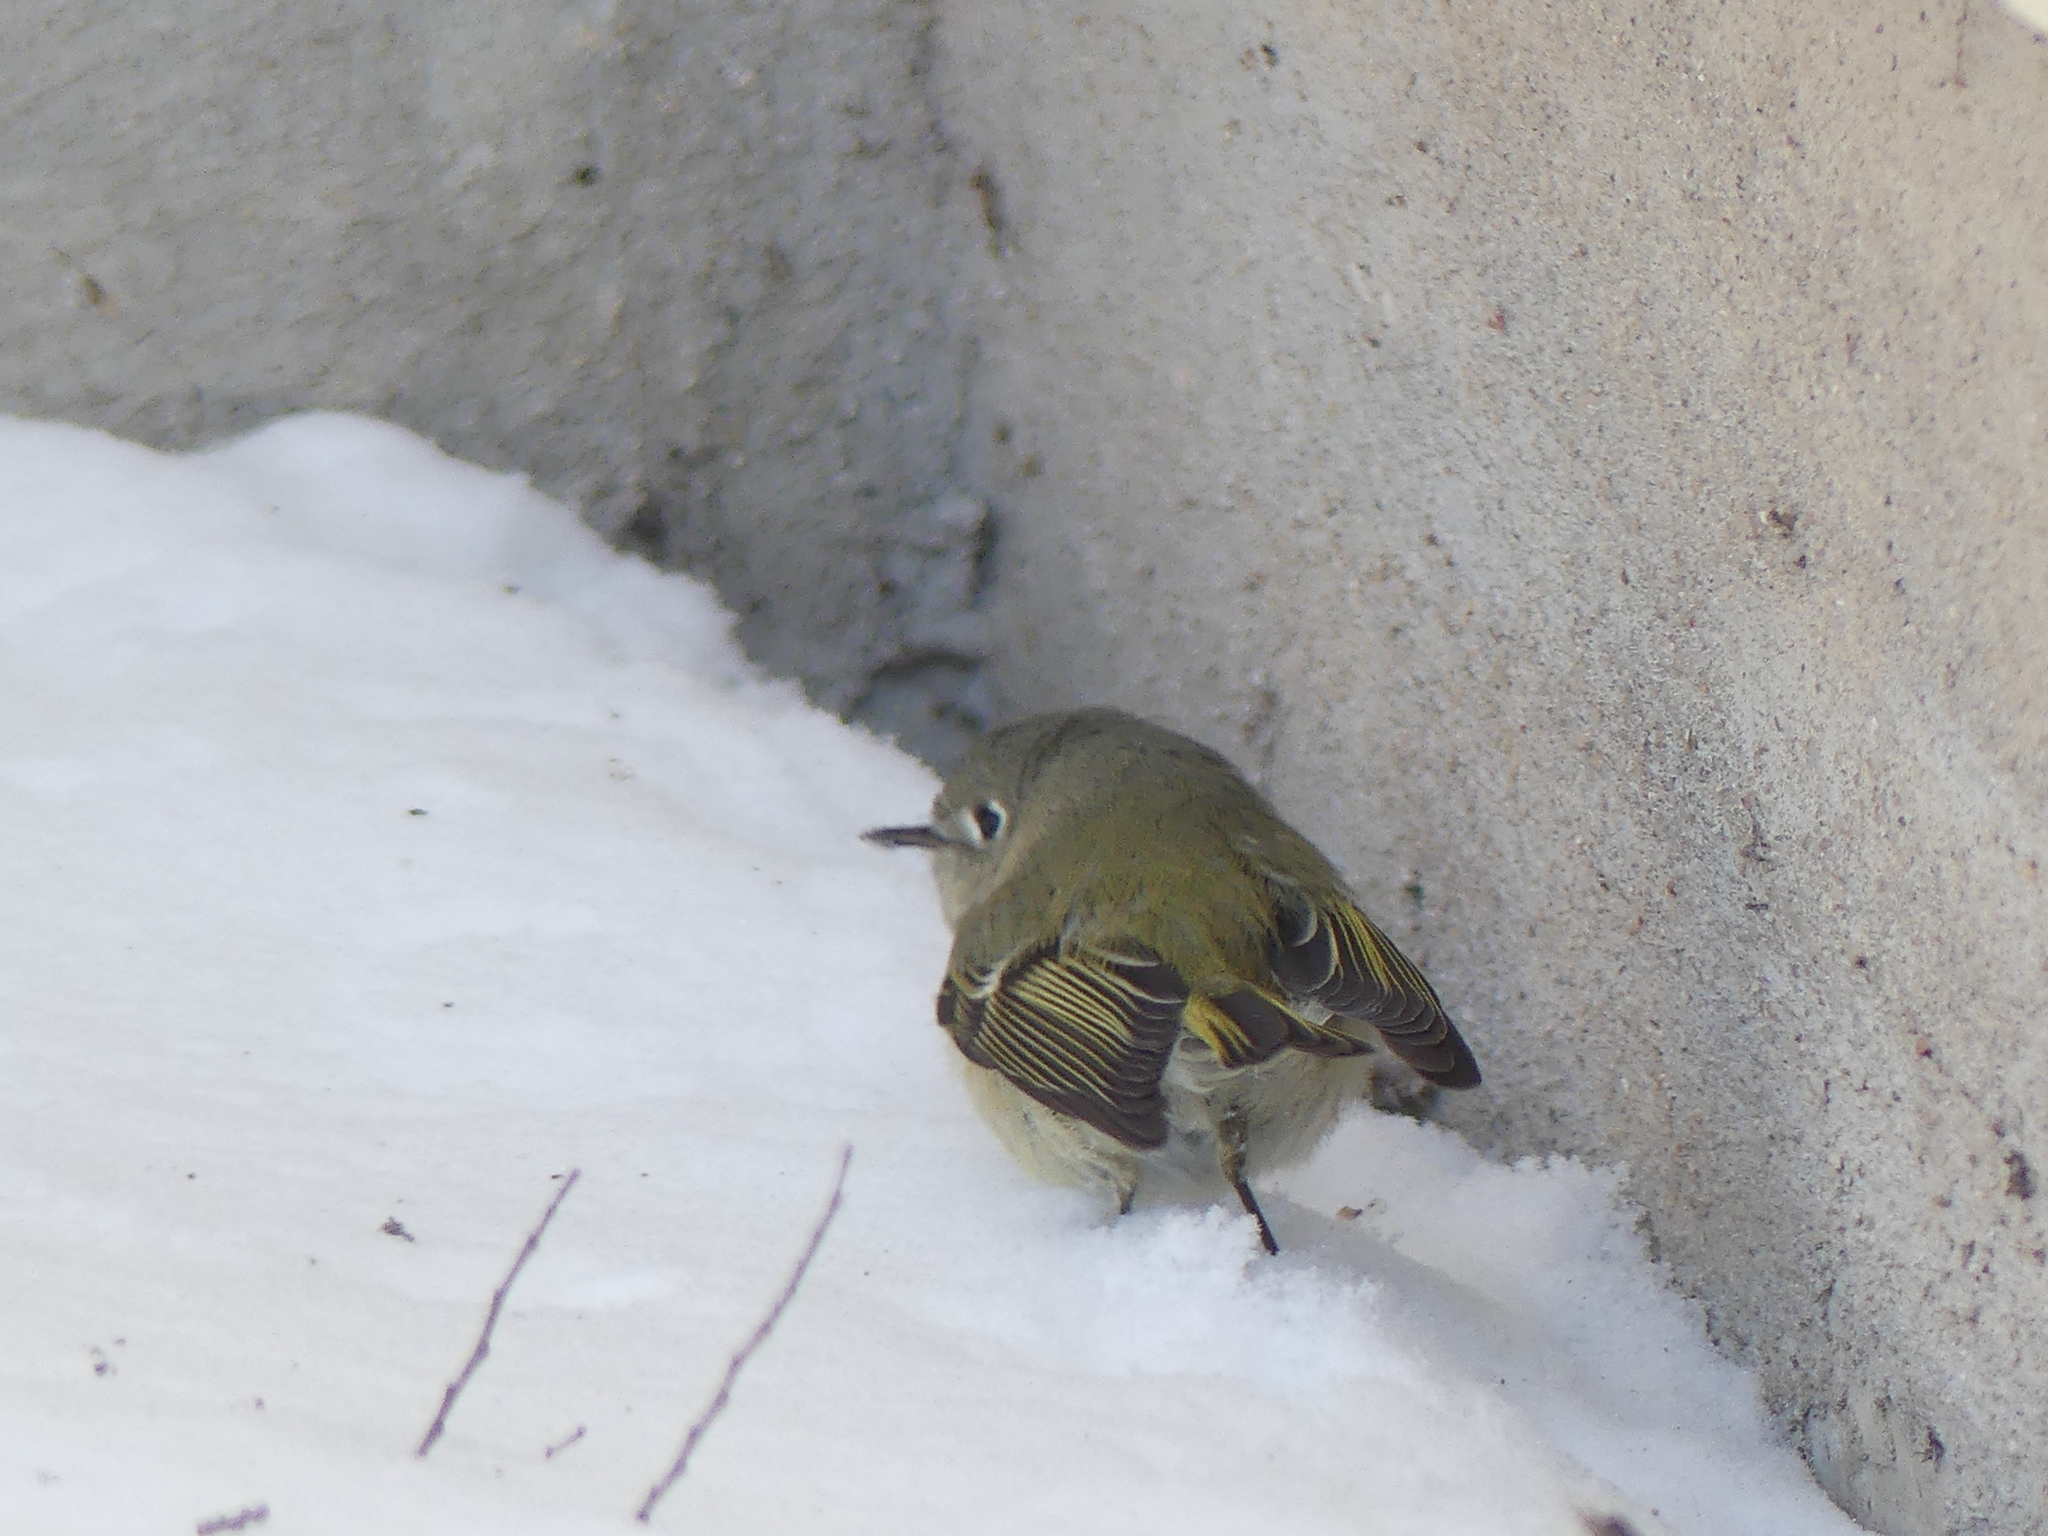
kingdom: Animalia
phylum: Chordata
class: Aves
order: Passeriformes
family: Regulidae
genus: Regulus
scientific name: Regulus calendula
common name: Ruby-crowned kinglet
